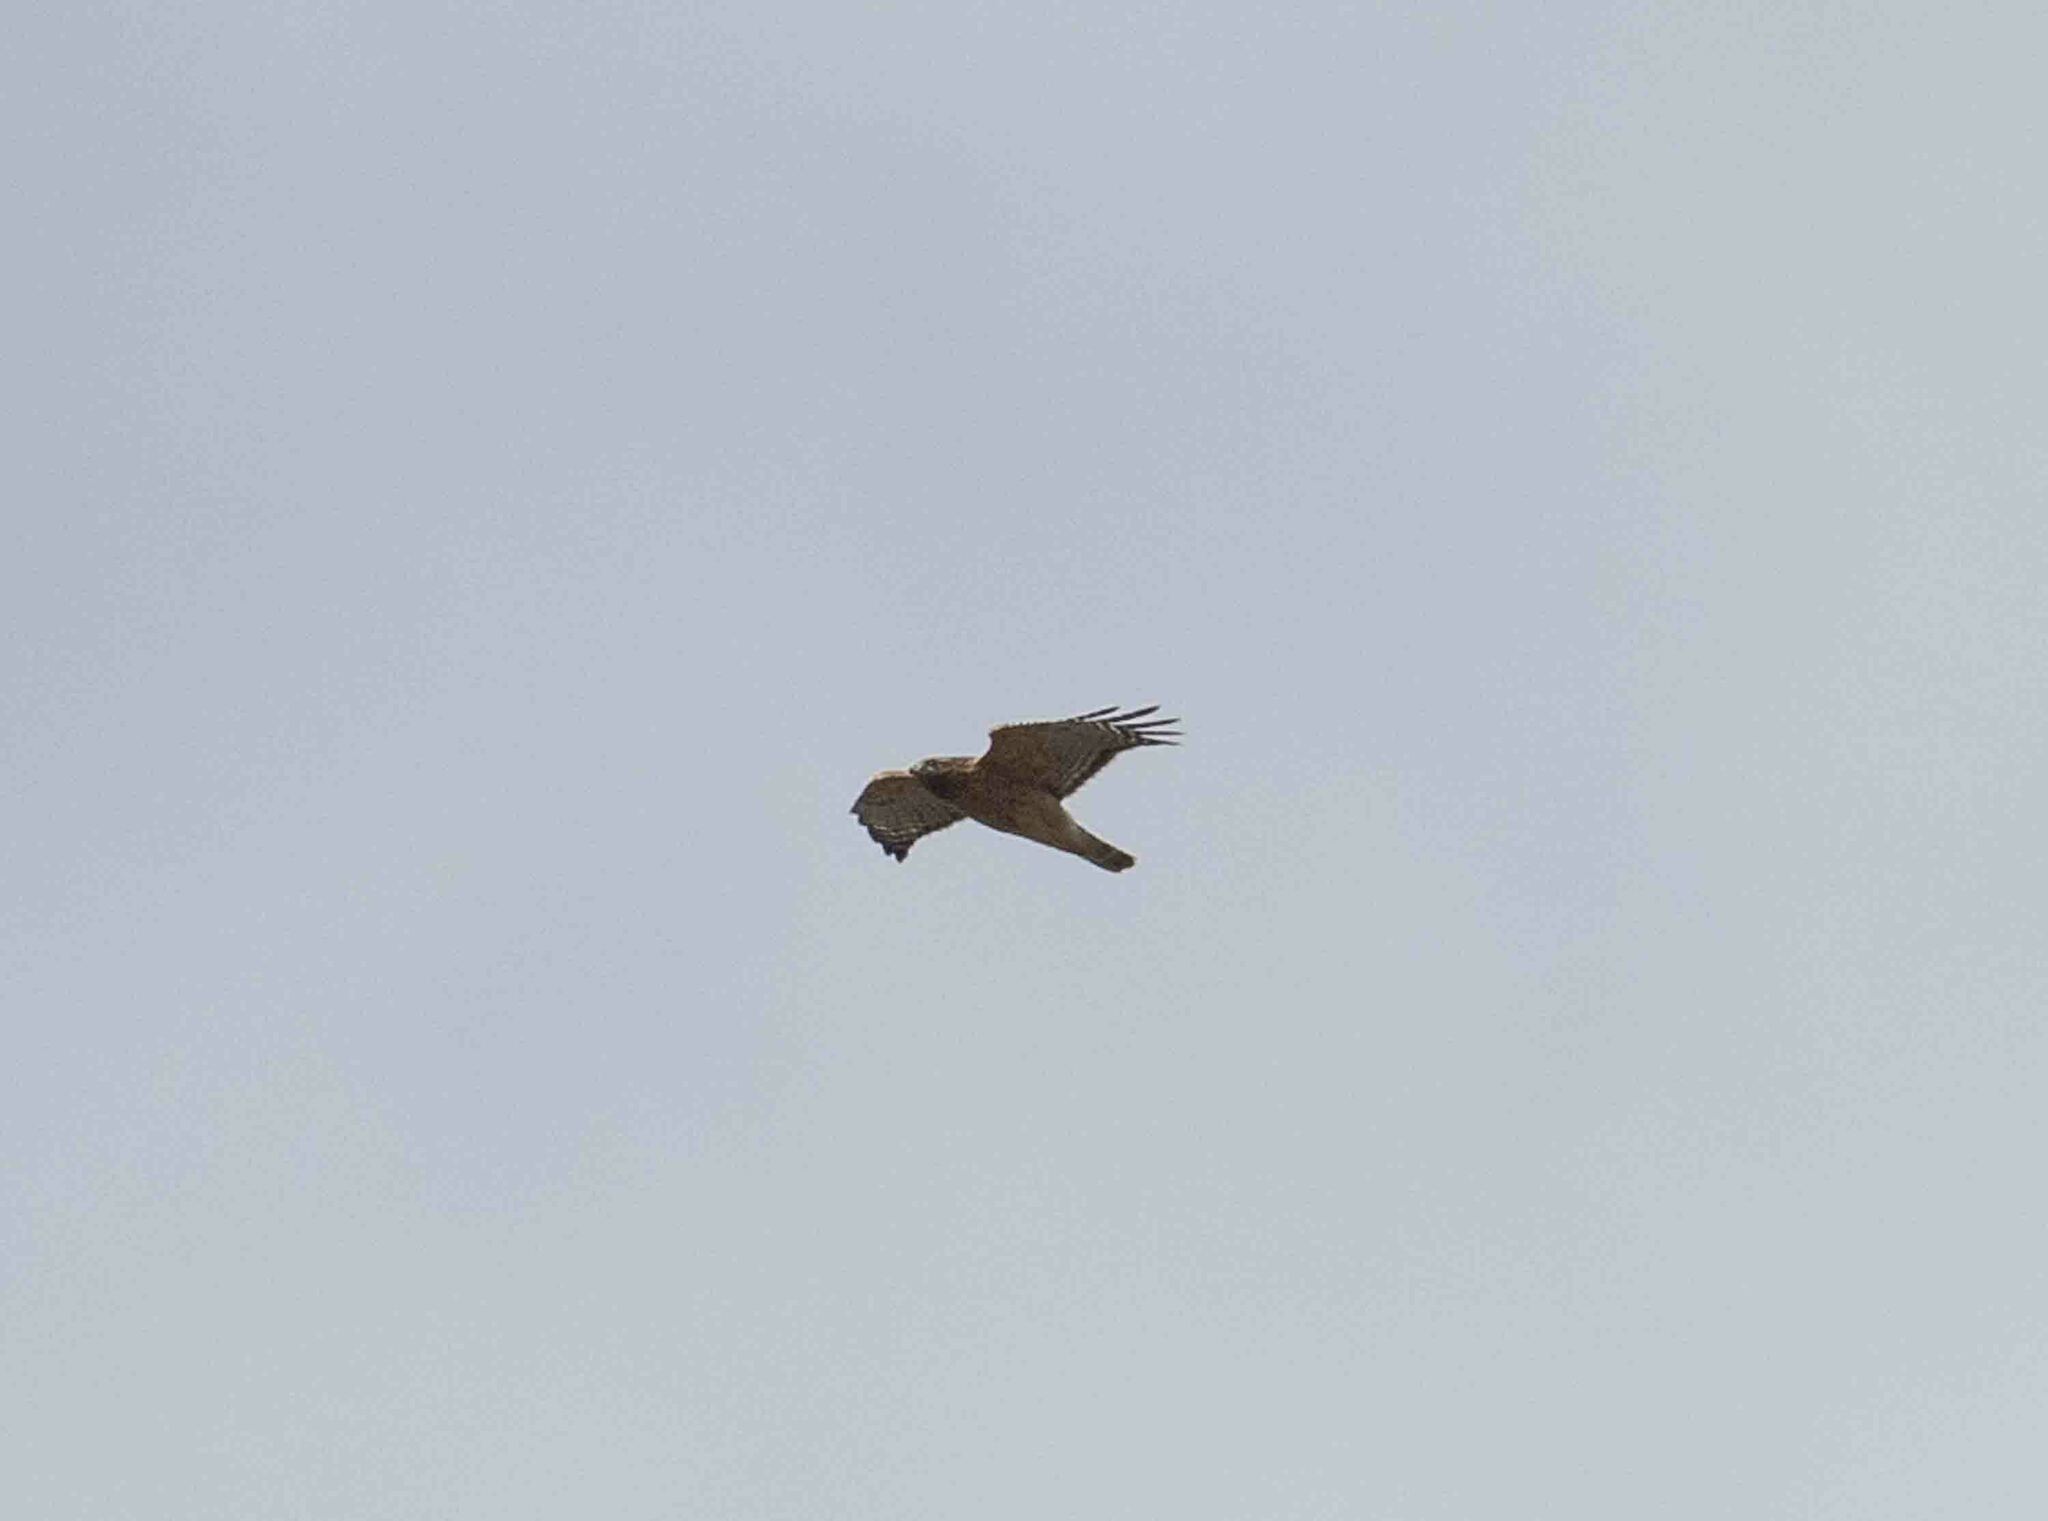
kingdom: Animalia
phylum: Chordata
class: Aves
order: Accipitriformes
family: Accipitridae
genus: Buteo
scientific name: Buteo lineatus
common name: Red-shouldered hawk
